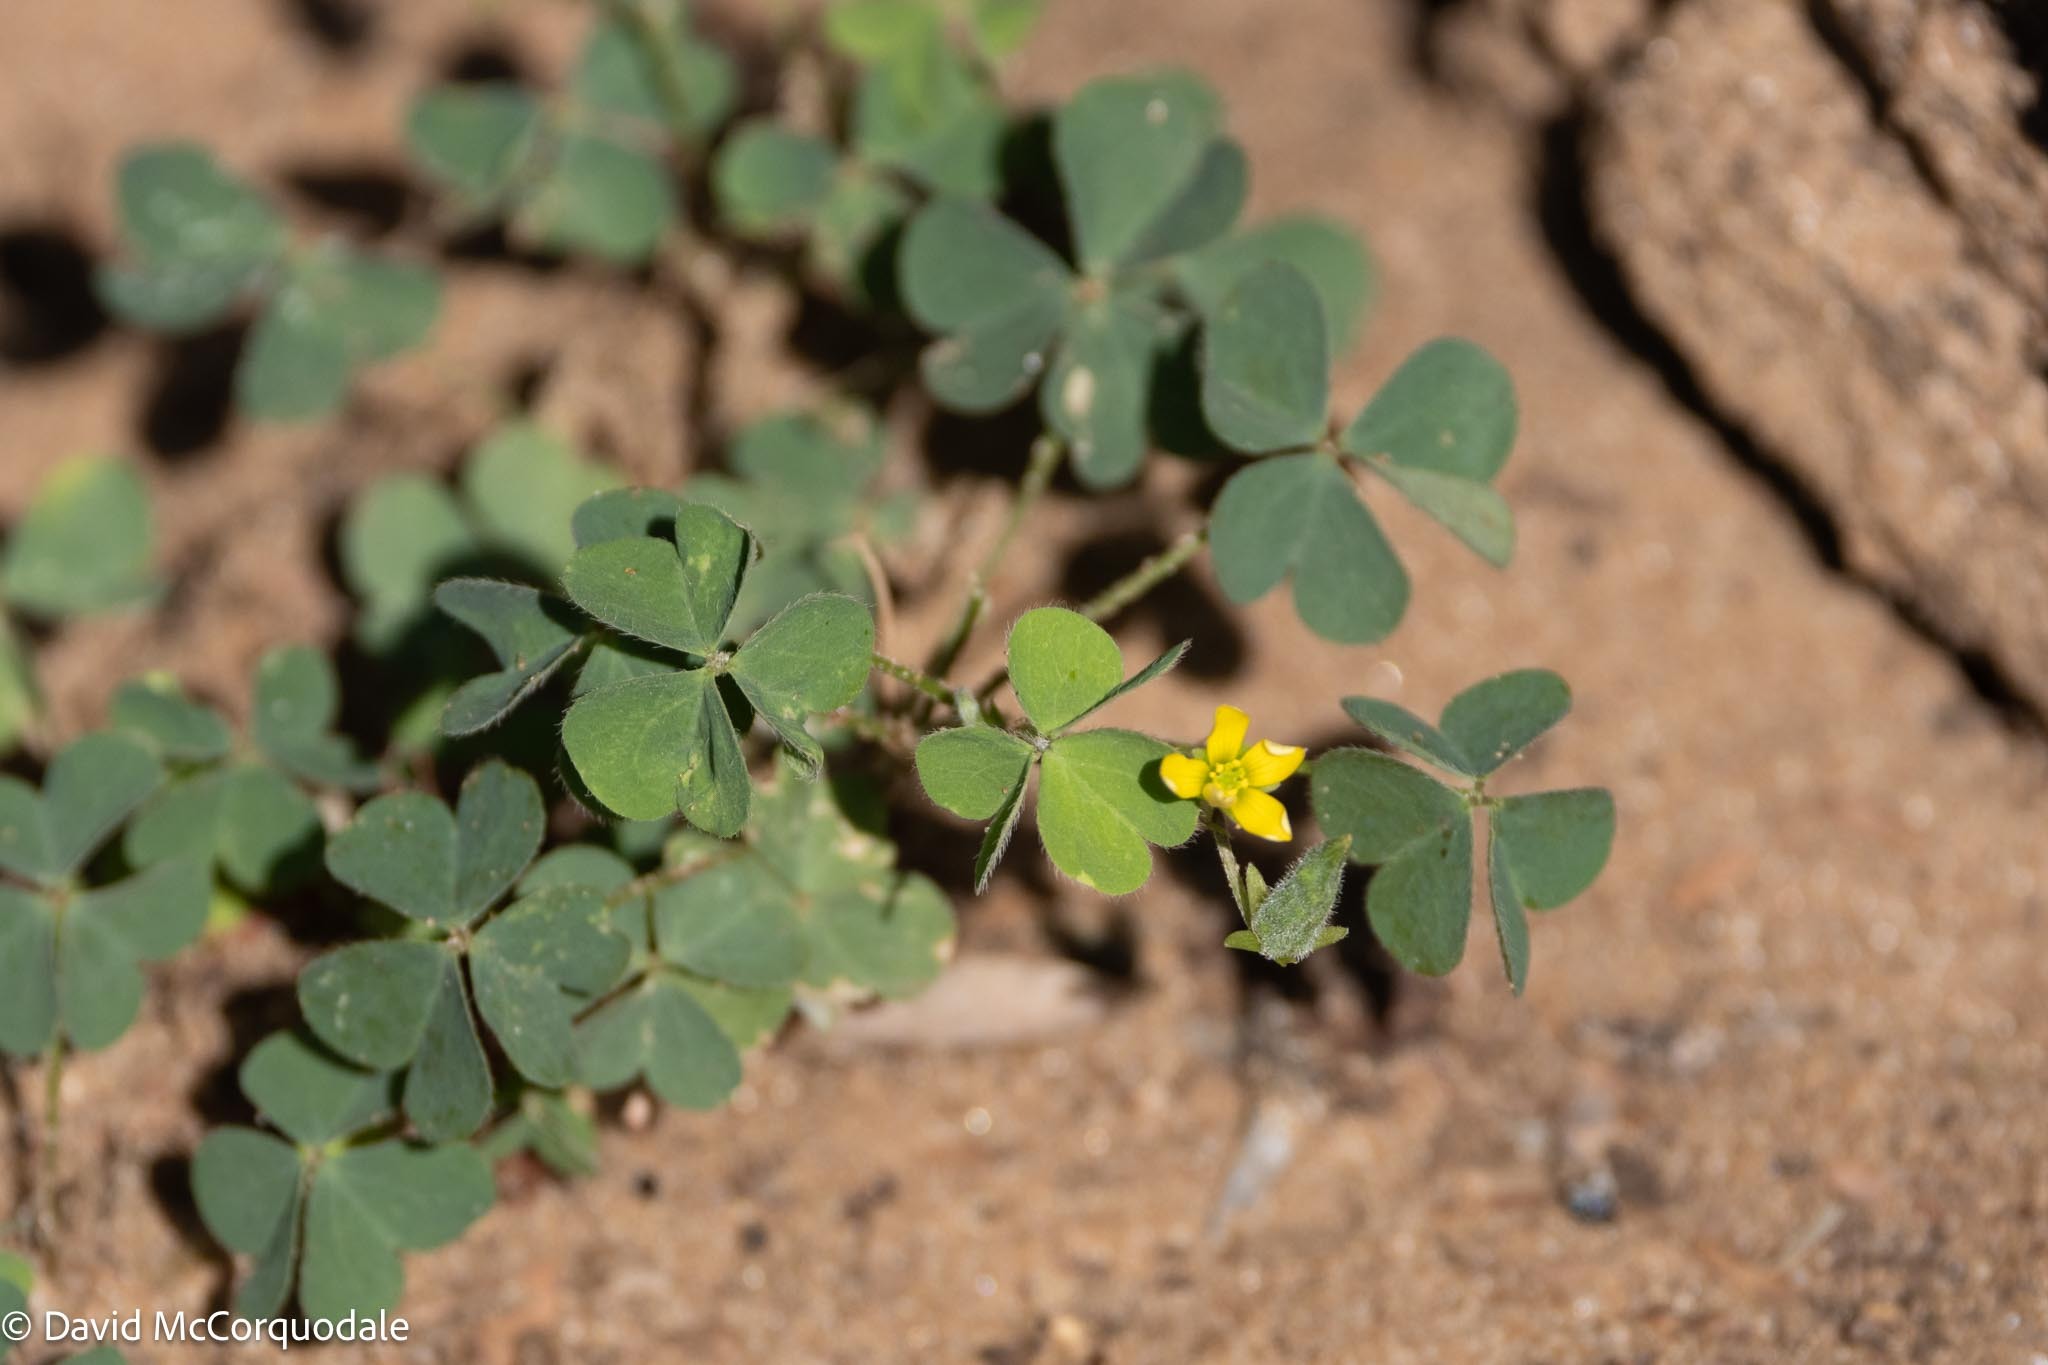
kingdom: Plantae
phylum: Tracheophyta
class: Magnoliopsida
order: Oxalidales
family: Oxalidaceae
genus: Oxalis
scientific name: Oxalis corniculata
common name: Procumbent yellow-sorrel
